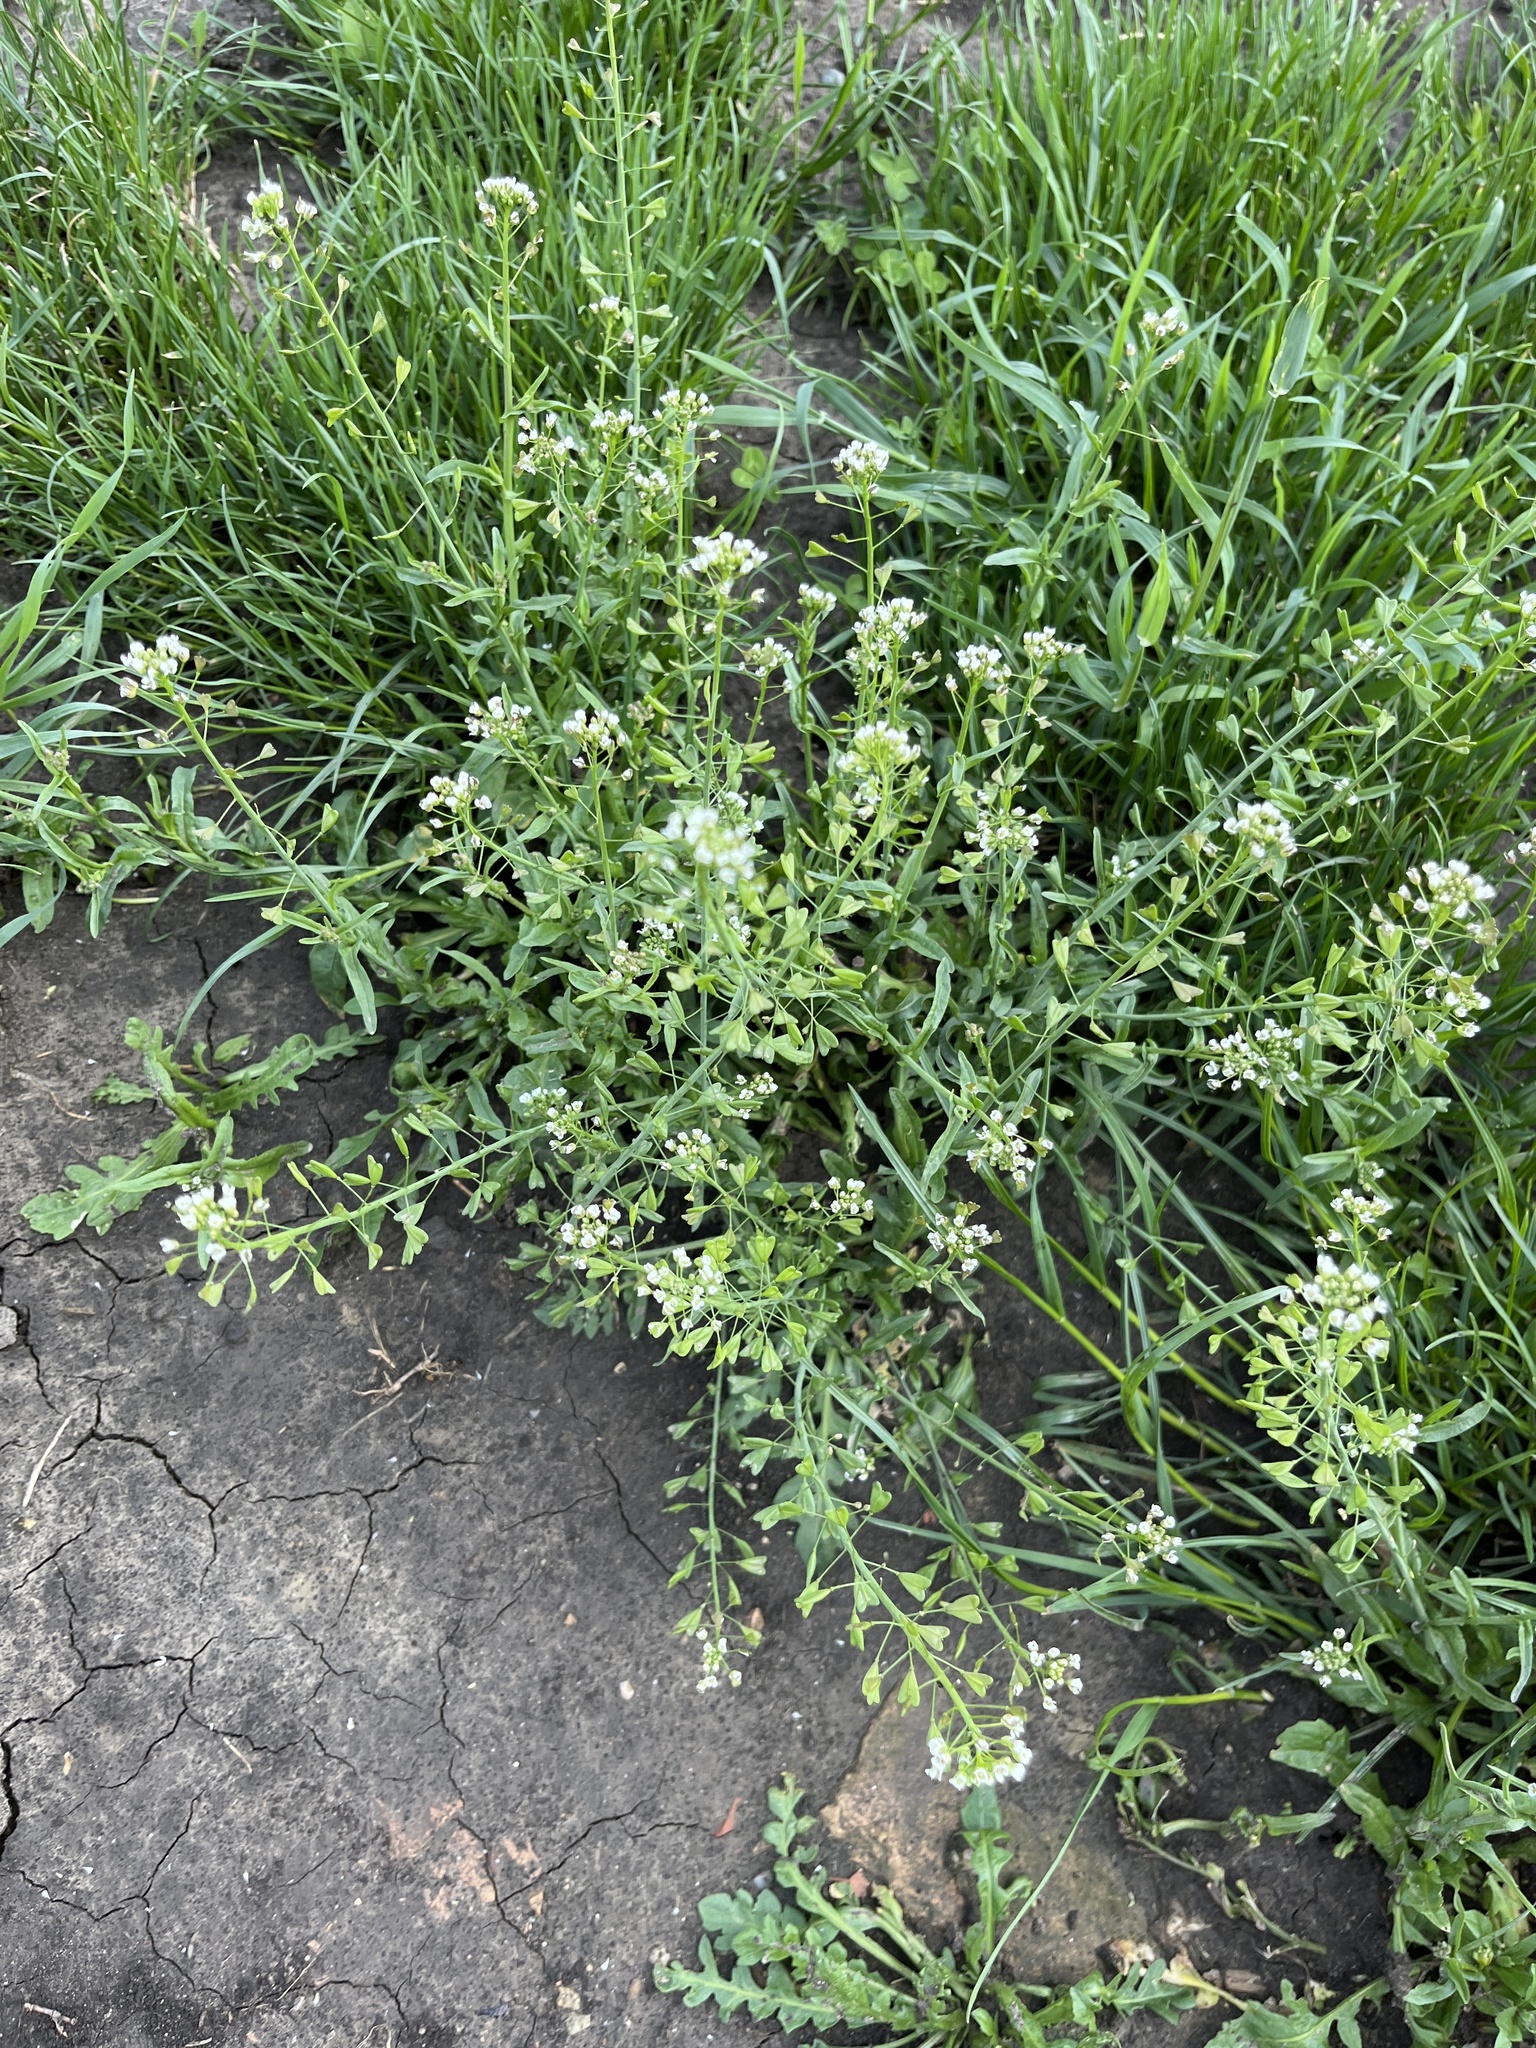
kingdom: Plantae
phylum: Tracheophyta
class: Magnoliopsida
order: Brassicales
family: Brassicaceae
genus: Capsella
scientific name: Capsella bursa-pastoris
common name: Shepherd's purse
